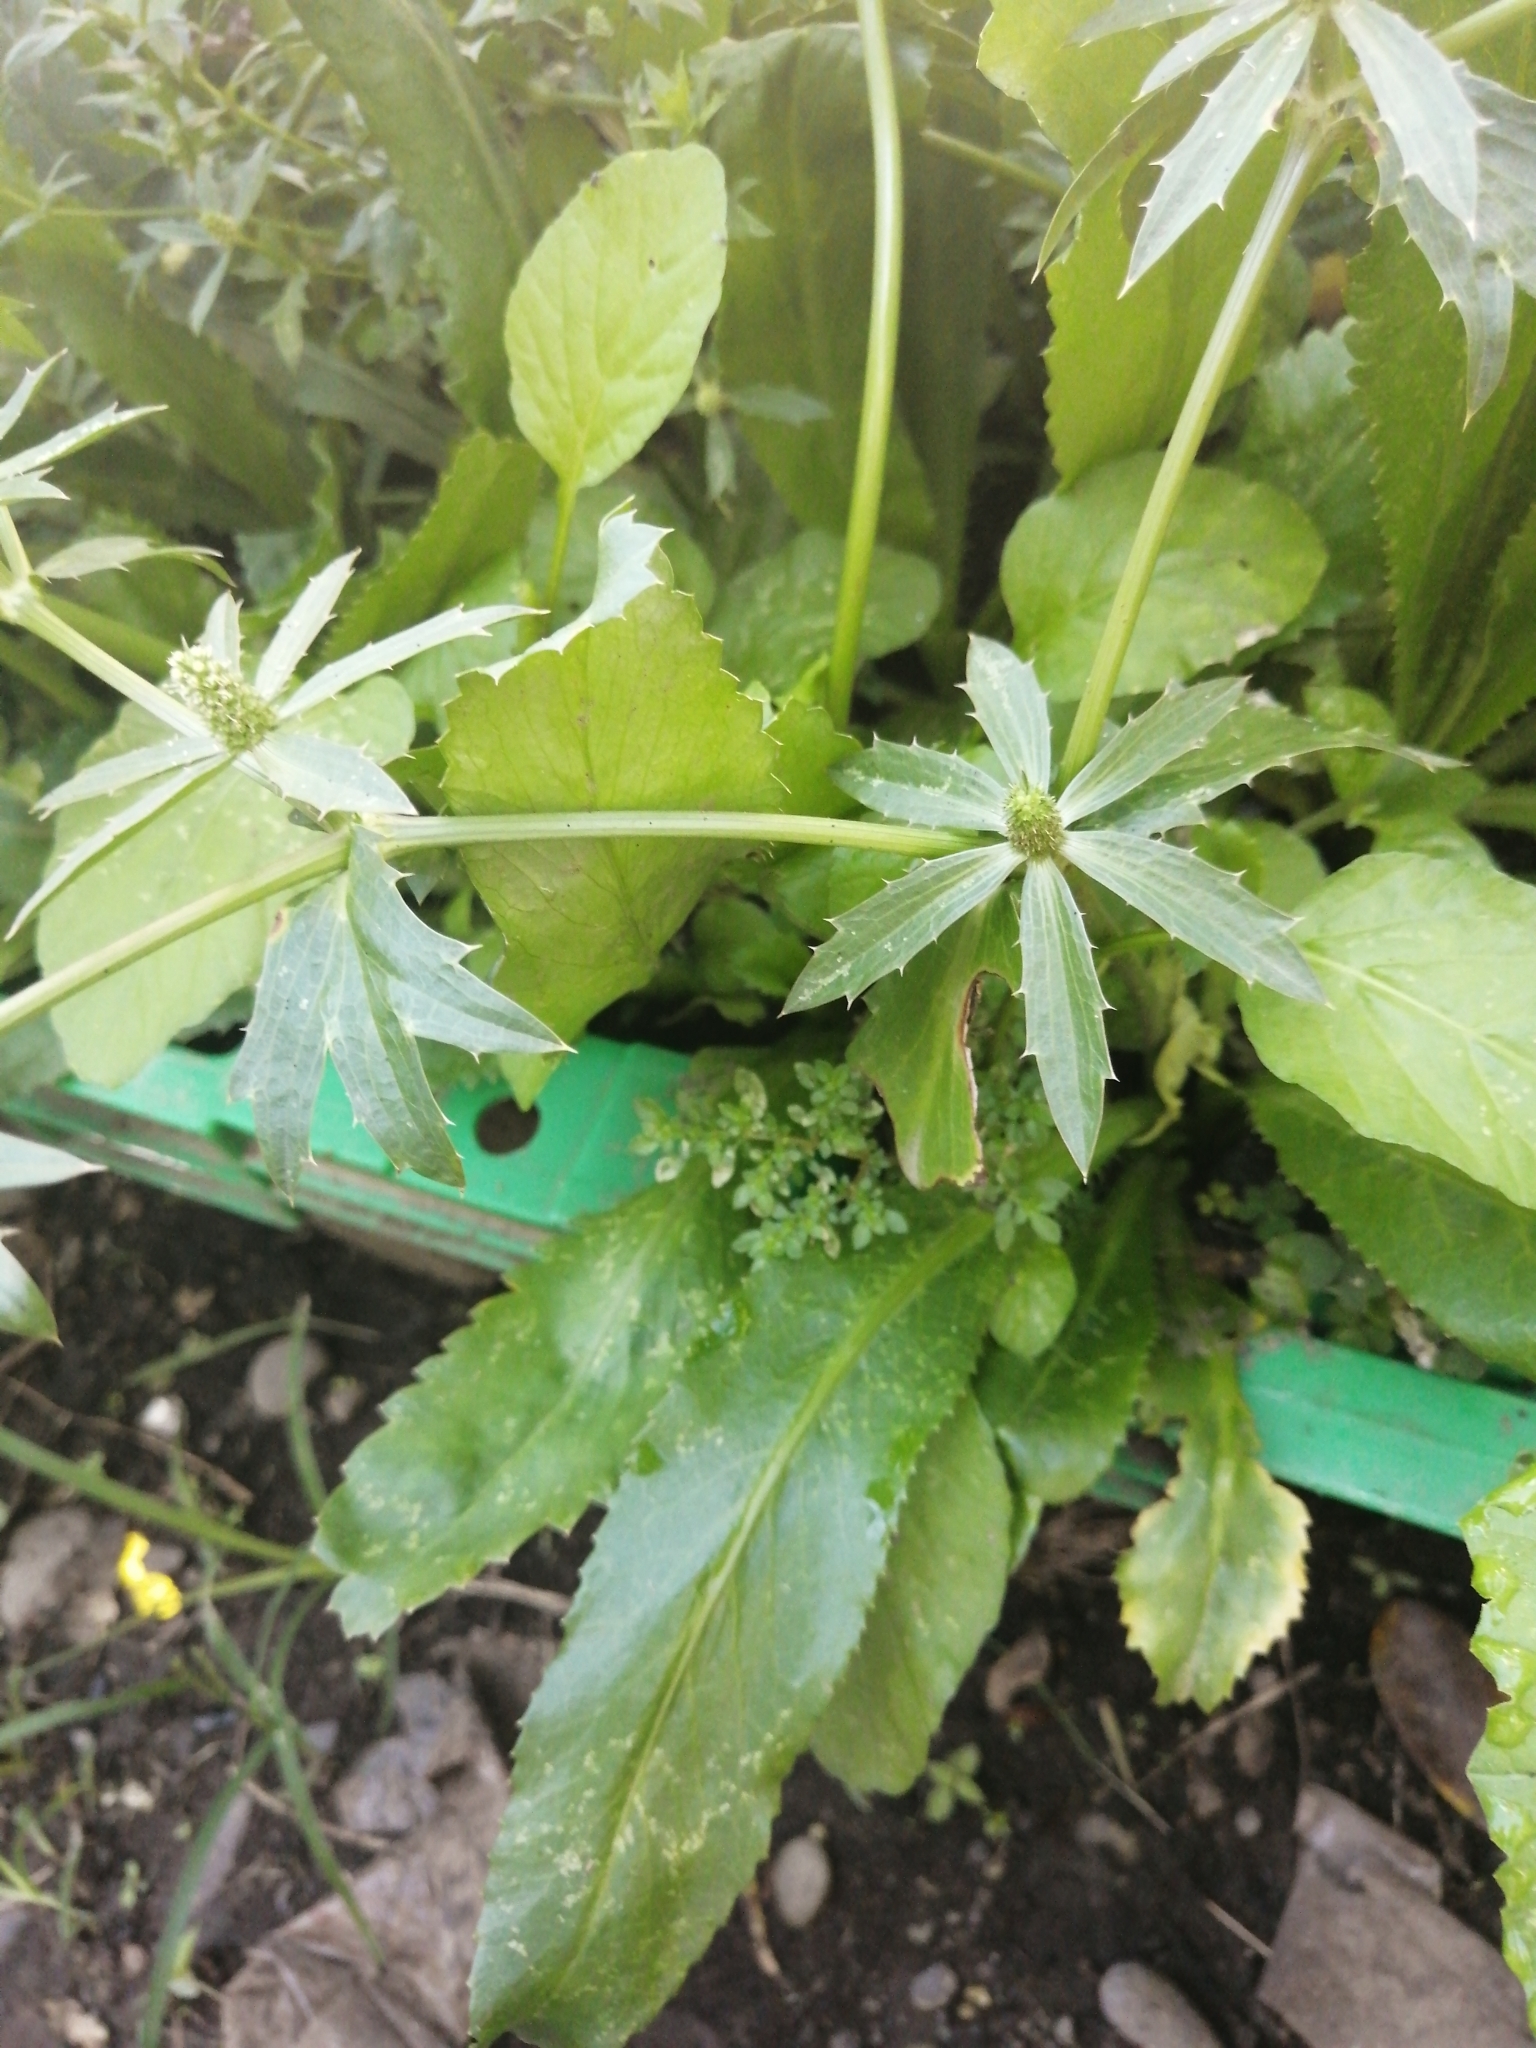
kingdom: Plantae
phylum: Tracheophyta
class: Magnoliopsida
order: Apiales
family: Apiaceae
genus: Eryngium
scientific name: Eryngium foetidum
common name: Fitweed
